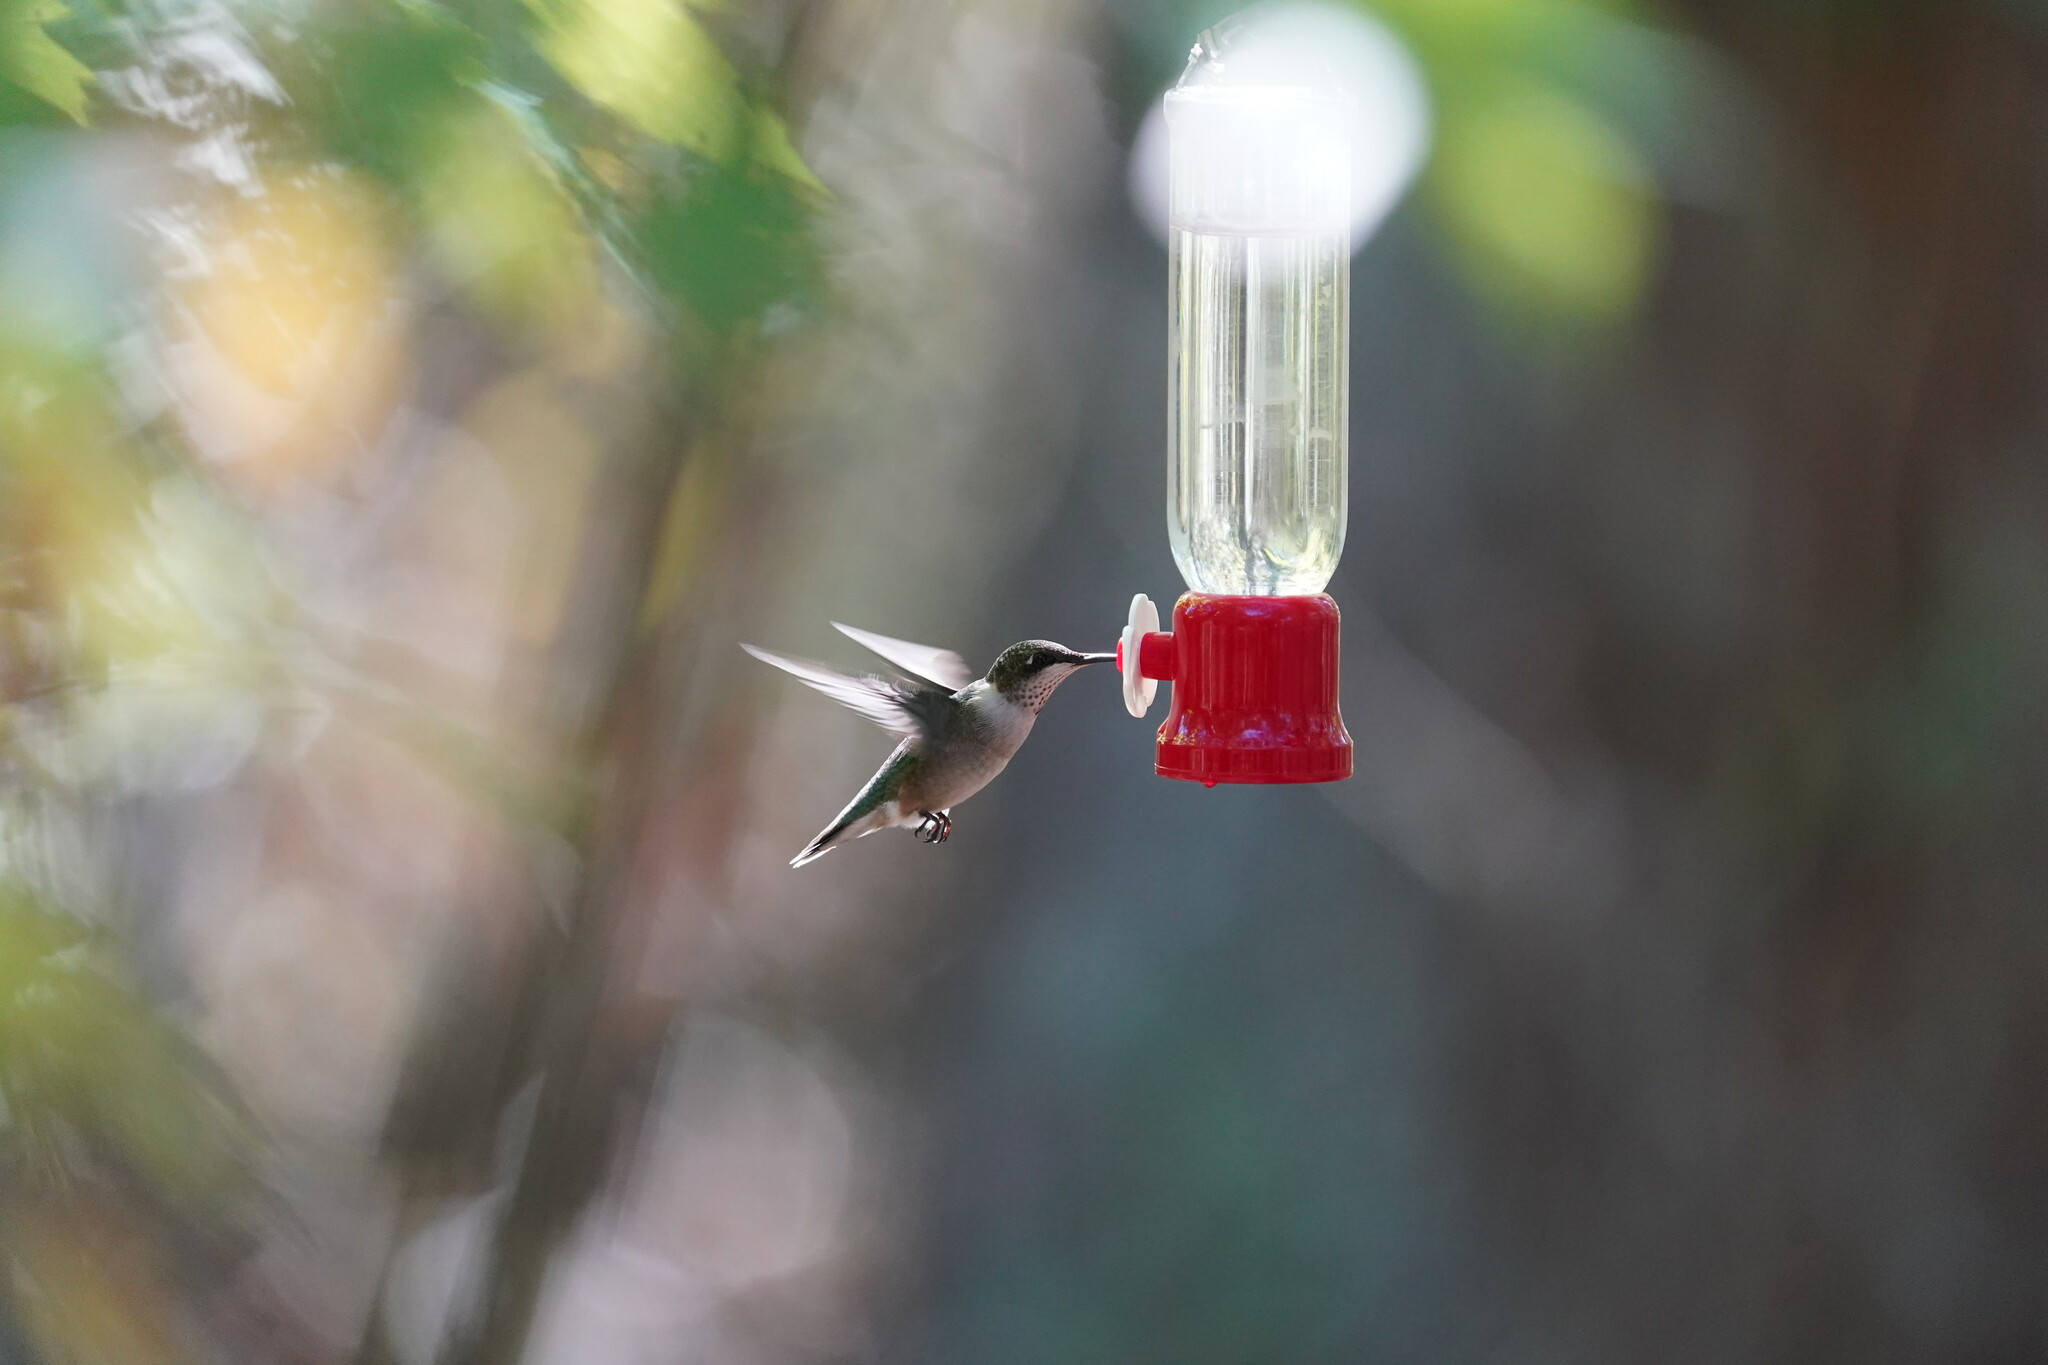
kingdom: Animalia
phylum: Chordata
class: Aves
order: Apodiformes
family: Trochilidae
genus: Archilochus
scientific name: Archilochus colubris
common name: Ruby-throated hummingbird
